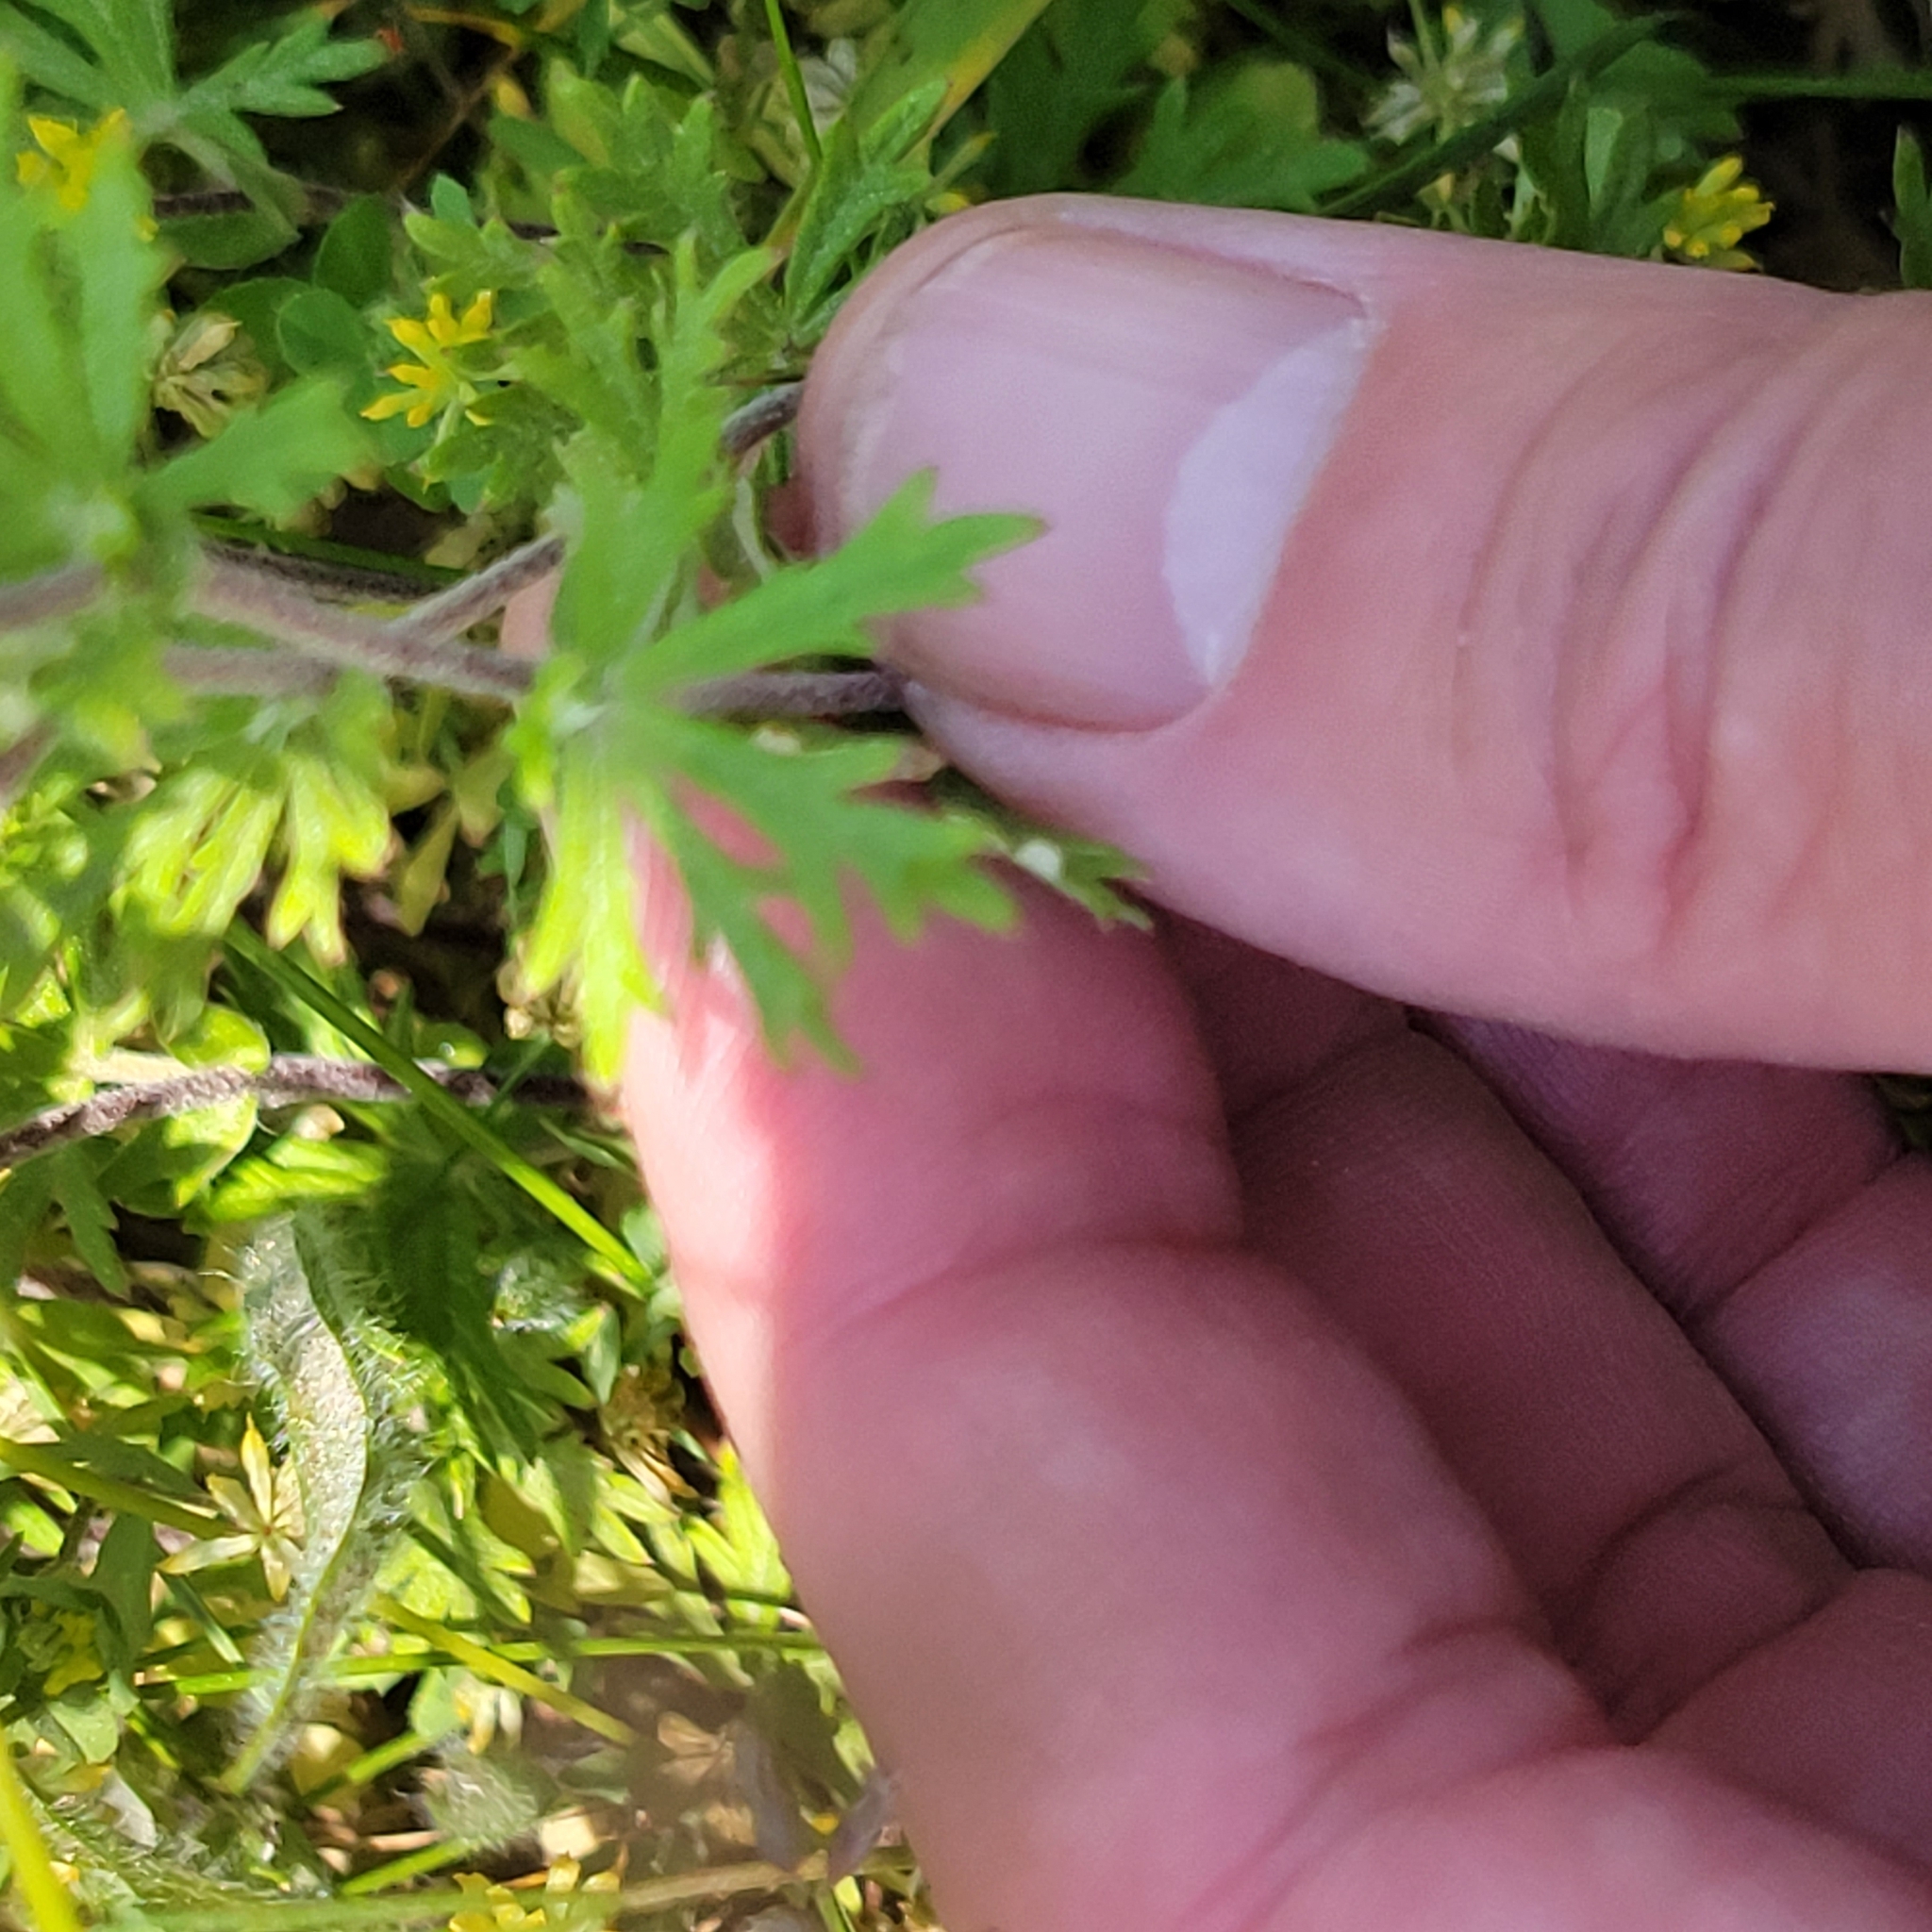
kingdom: Plantae
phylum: Tracheophyta
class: Magnoliopsida
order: Rosales
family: Rosaceae
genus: Potentilla
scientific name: Potentilla argentea
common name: Hoary cinquefoil
